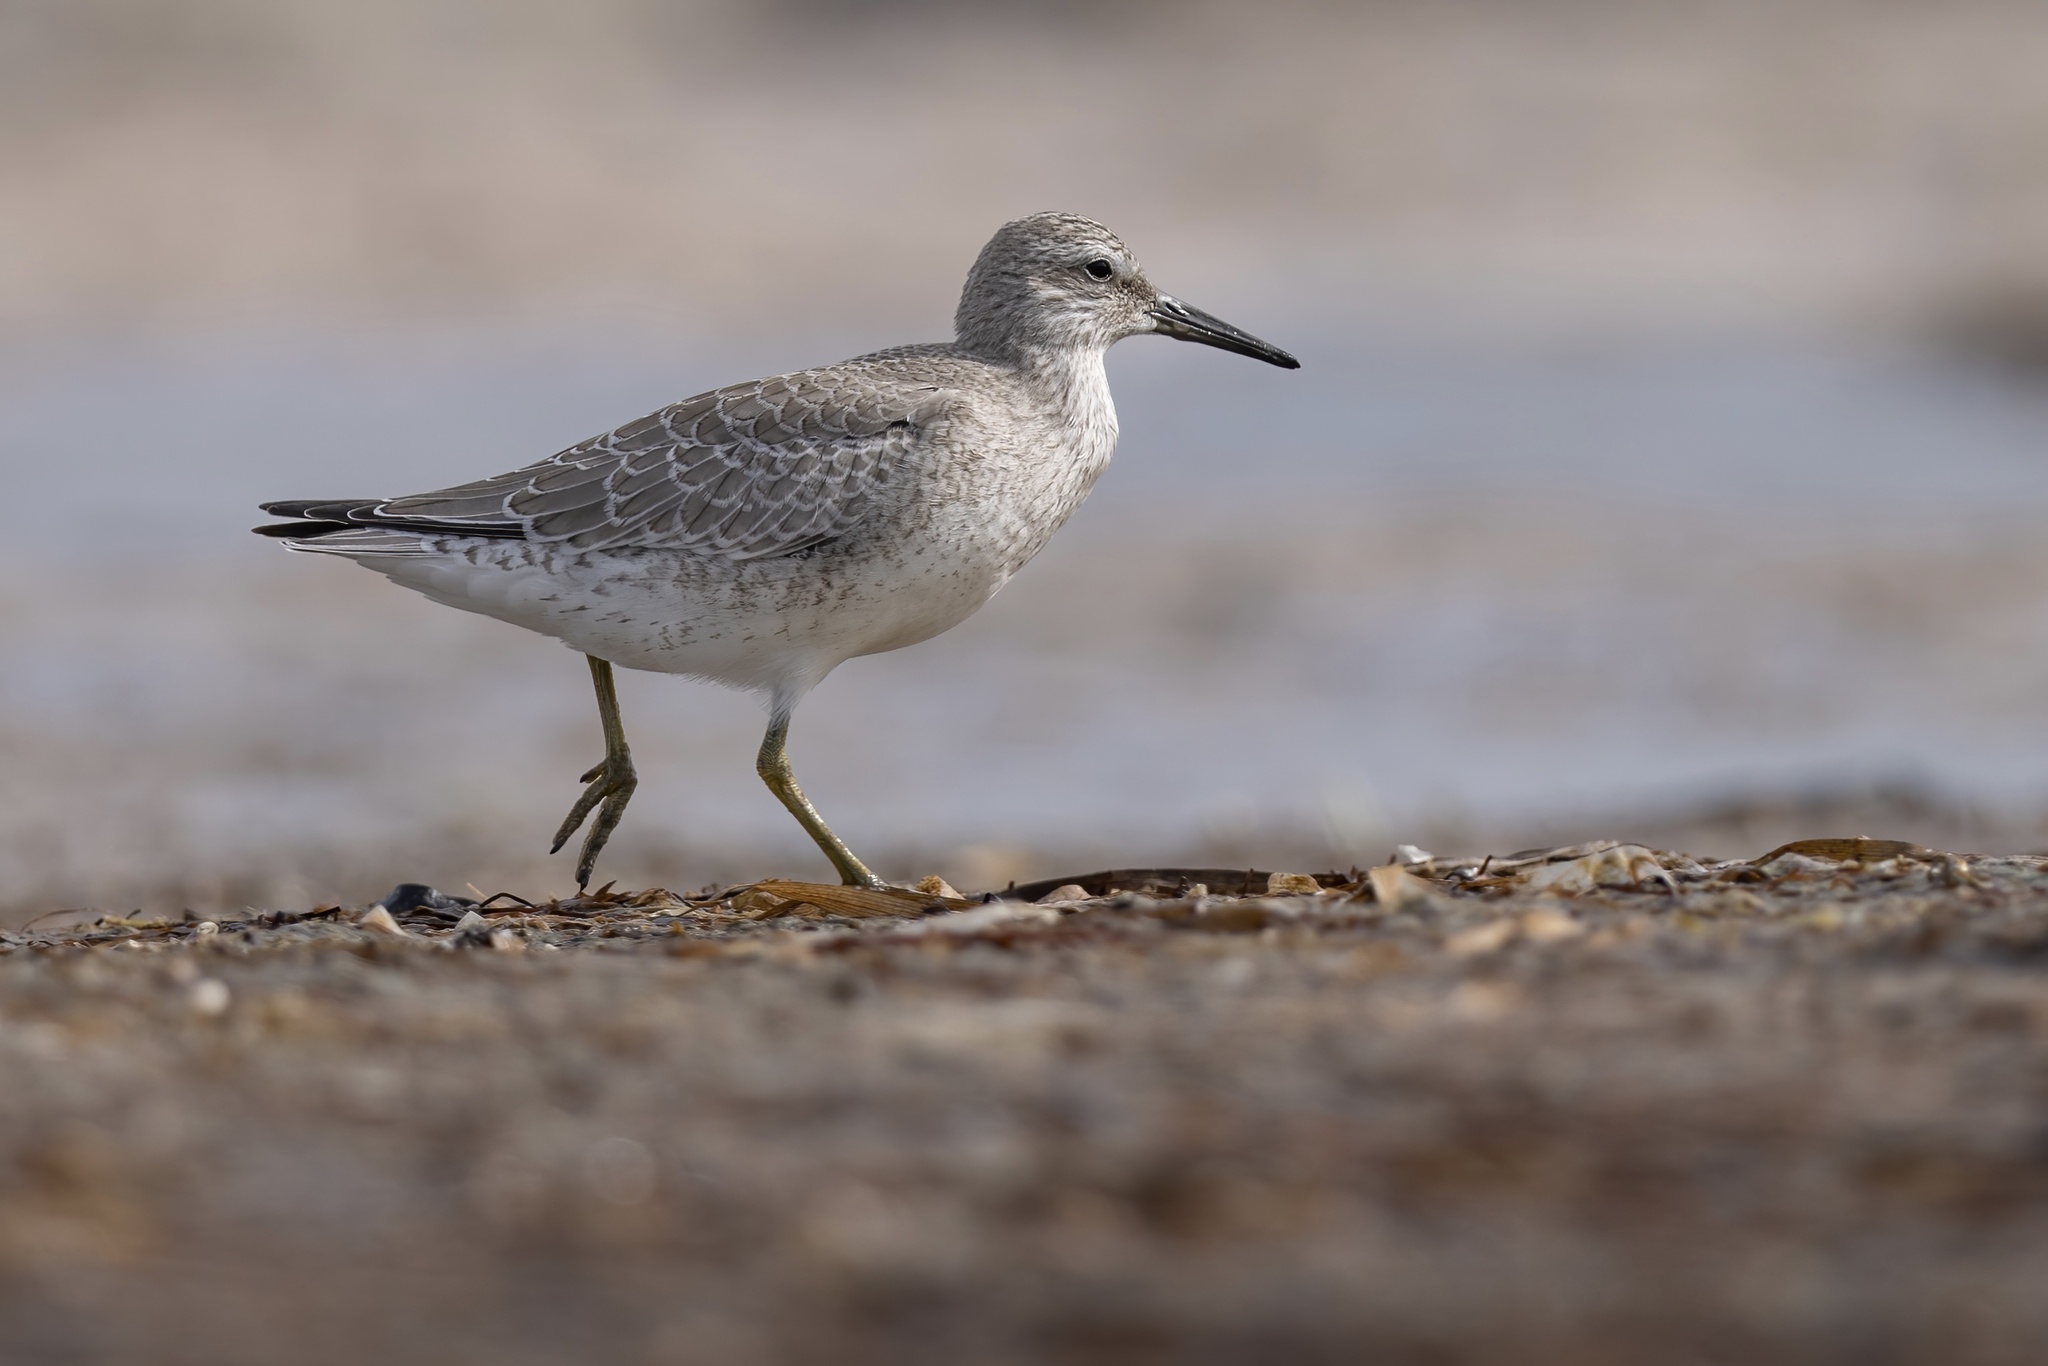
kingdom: Animalia
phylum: Chordata
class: Aves
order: Charadriiformes
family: Scolopacidae
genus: Calidris
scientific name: Calidris canutus
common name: Red knot
